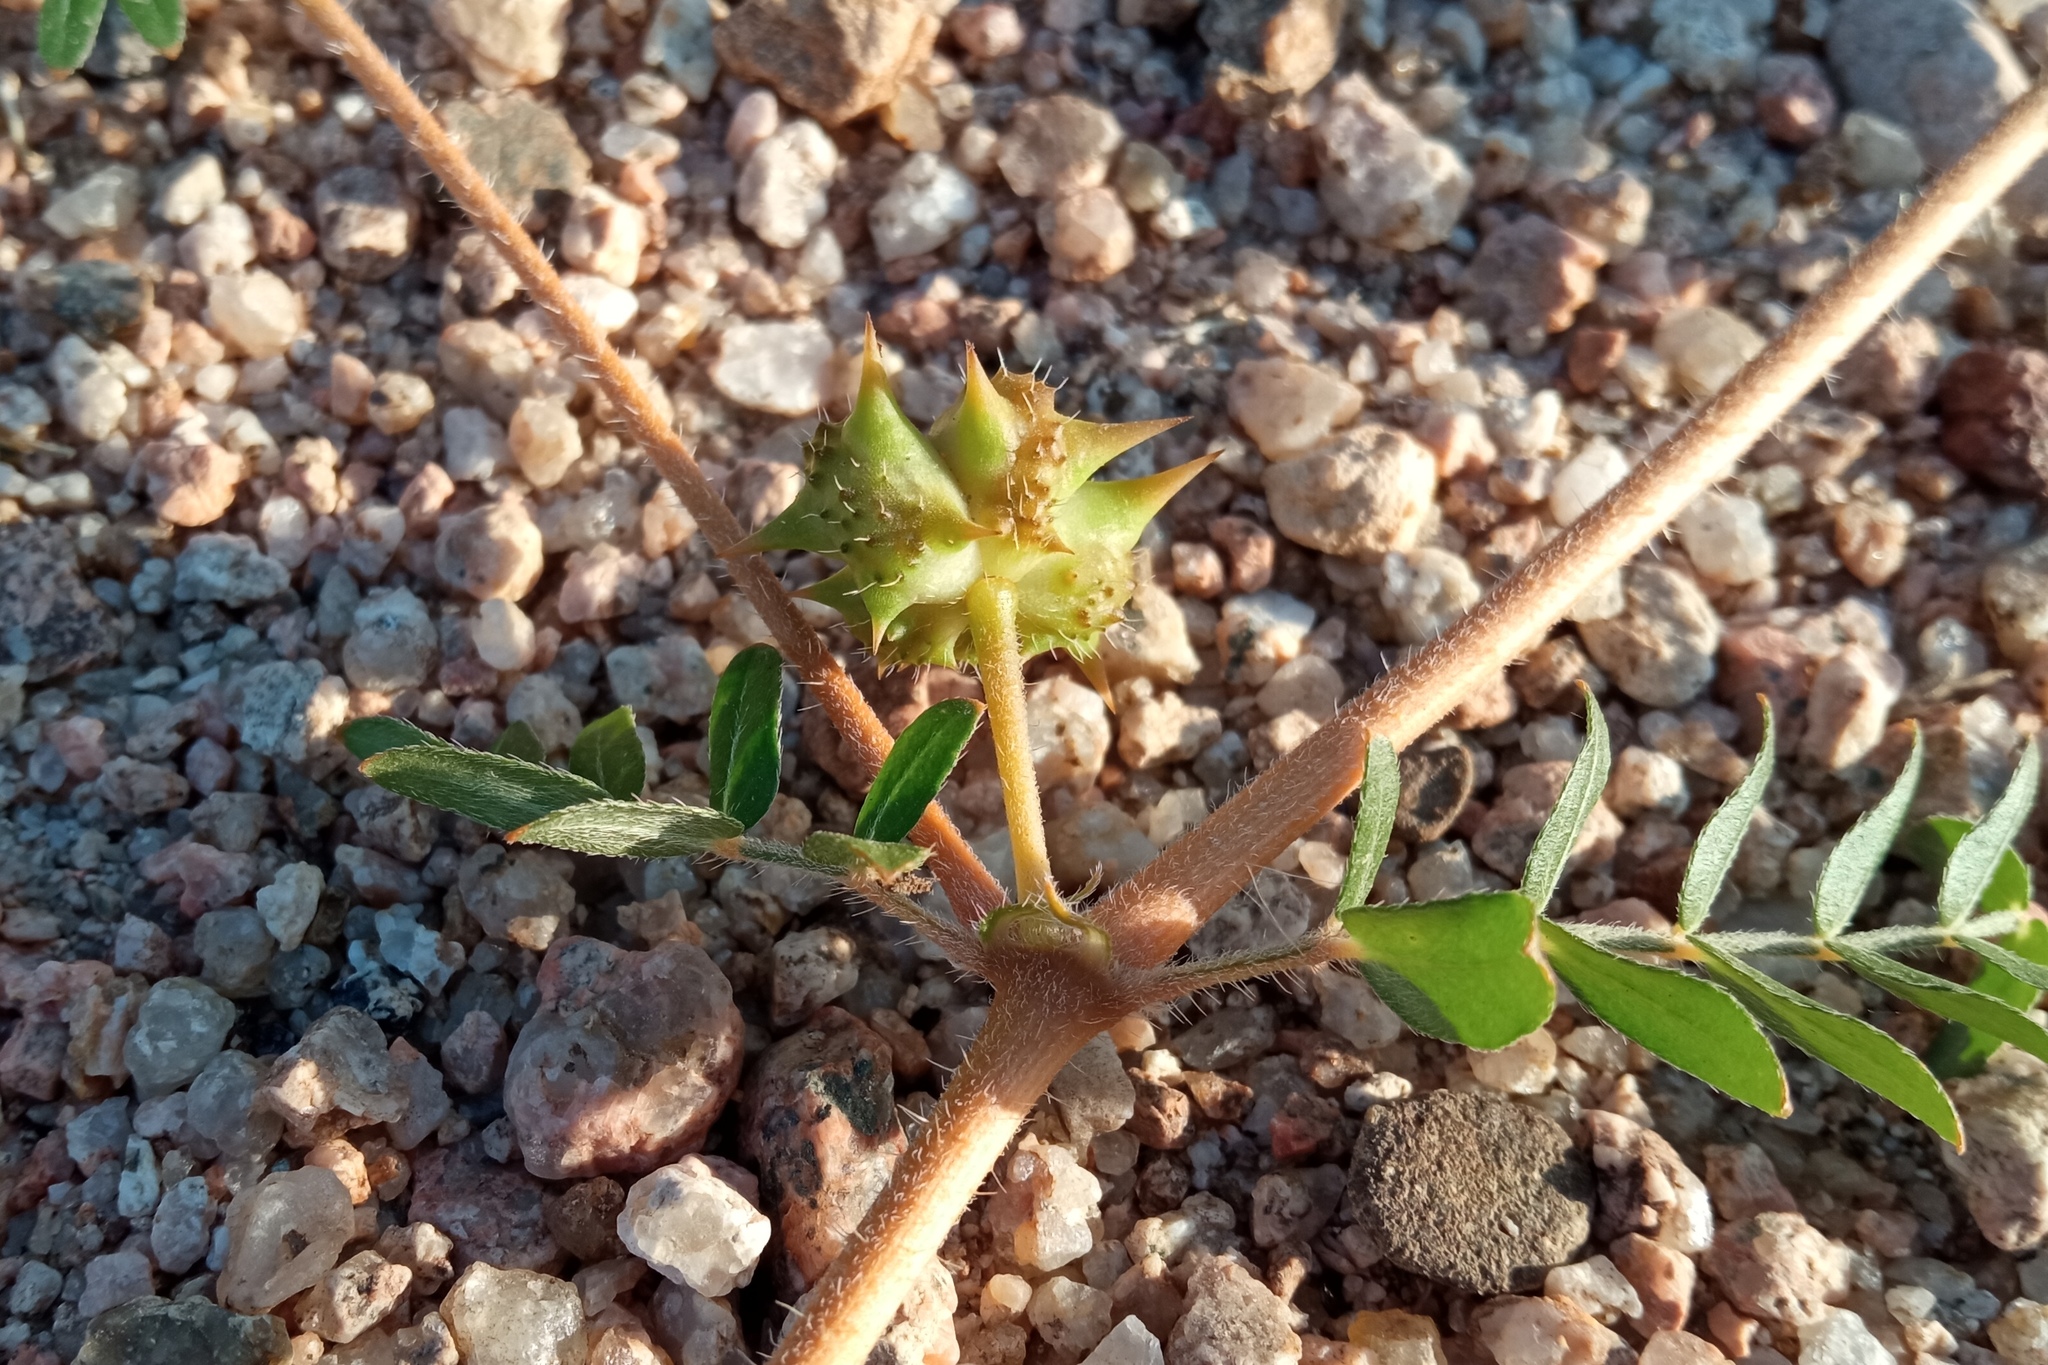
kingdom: Plantae
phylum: Tracheophyta
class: Magnoliopsida
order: Zygophyllales
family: Zygophyllaceae
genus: Tribulus
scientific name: Tribulus terrestris
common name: Puncturevine
